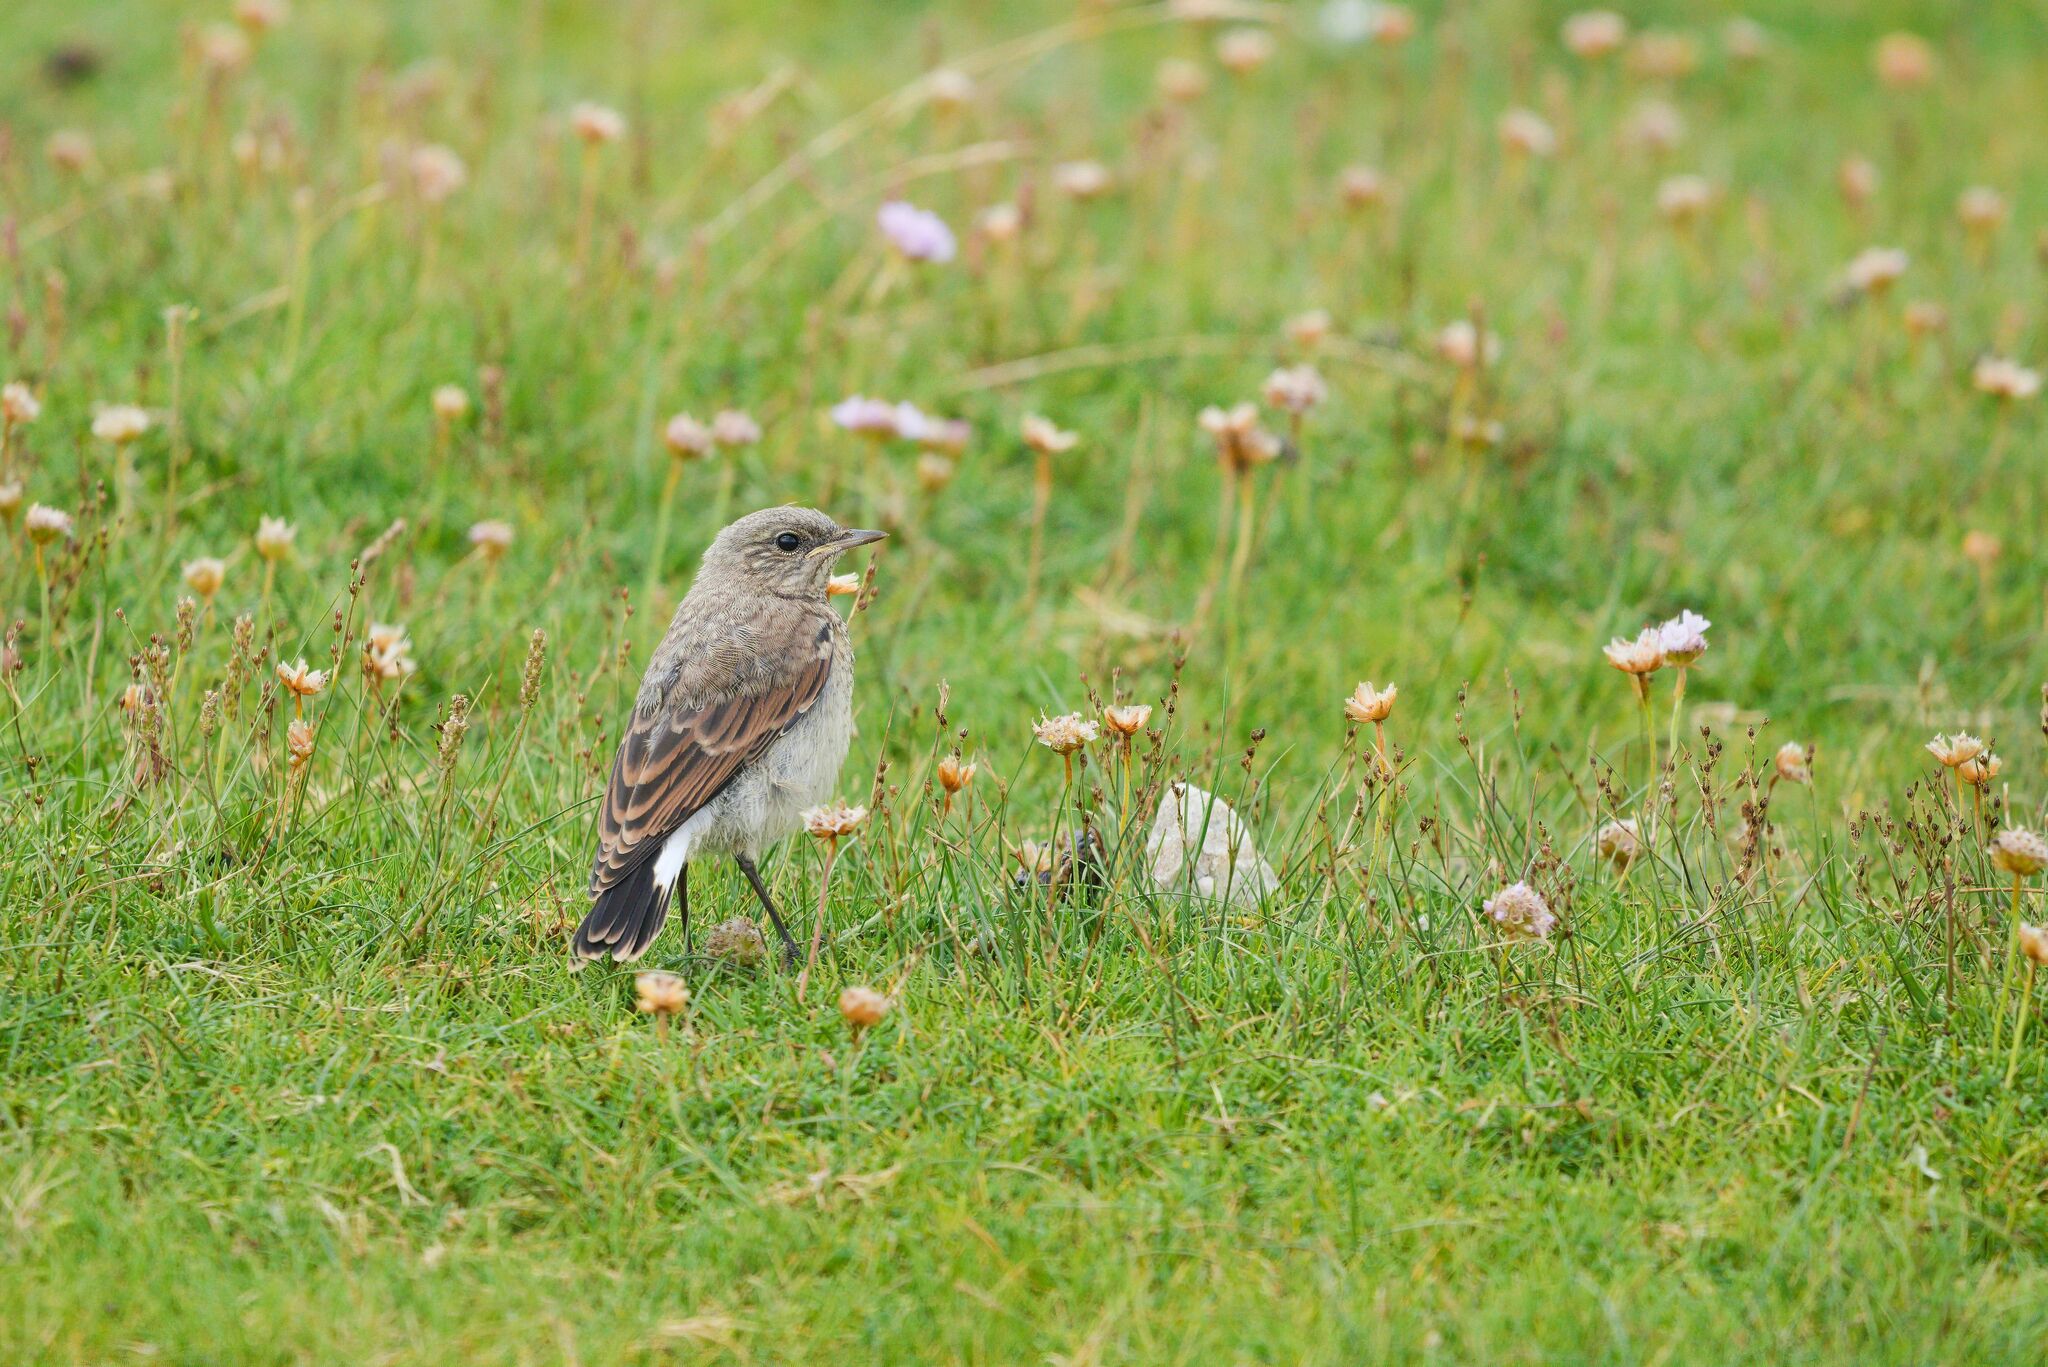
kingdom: Animalia
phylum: Chordata
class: Aves
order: Passeriformes
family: Muscicapidae
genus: Oenanthe
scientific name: Oenanthe oenanthe
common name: Northern wheatear
